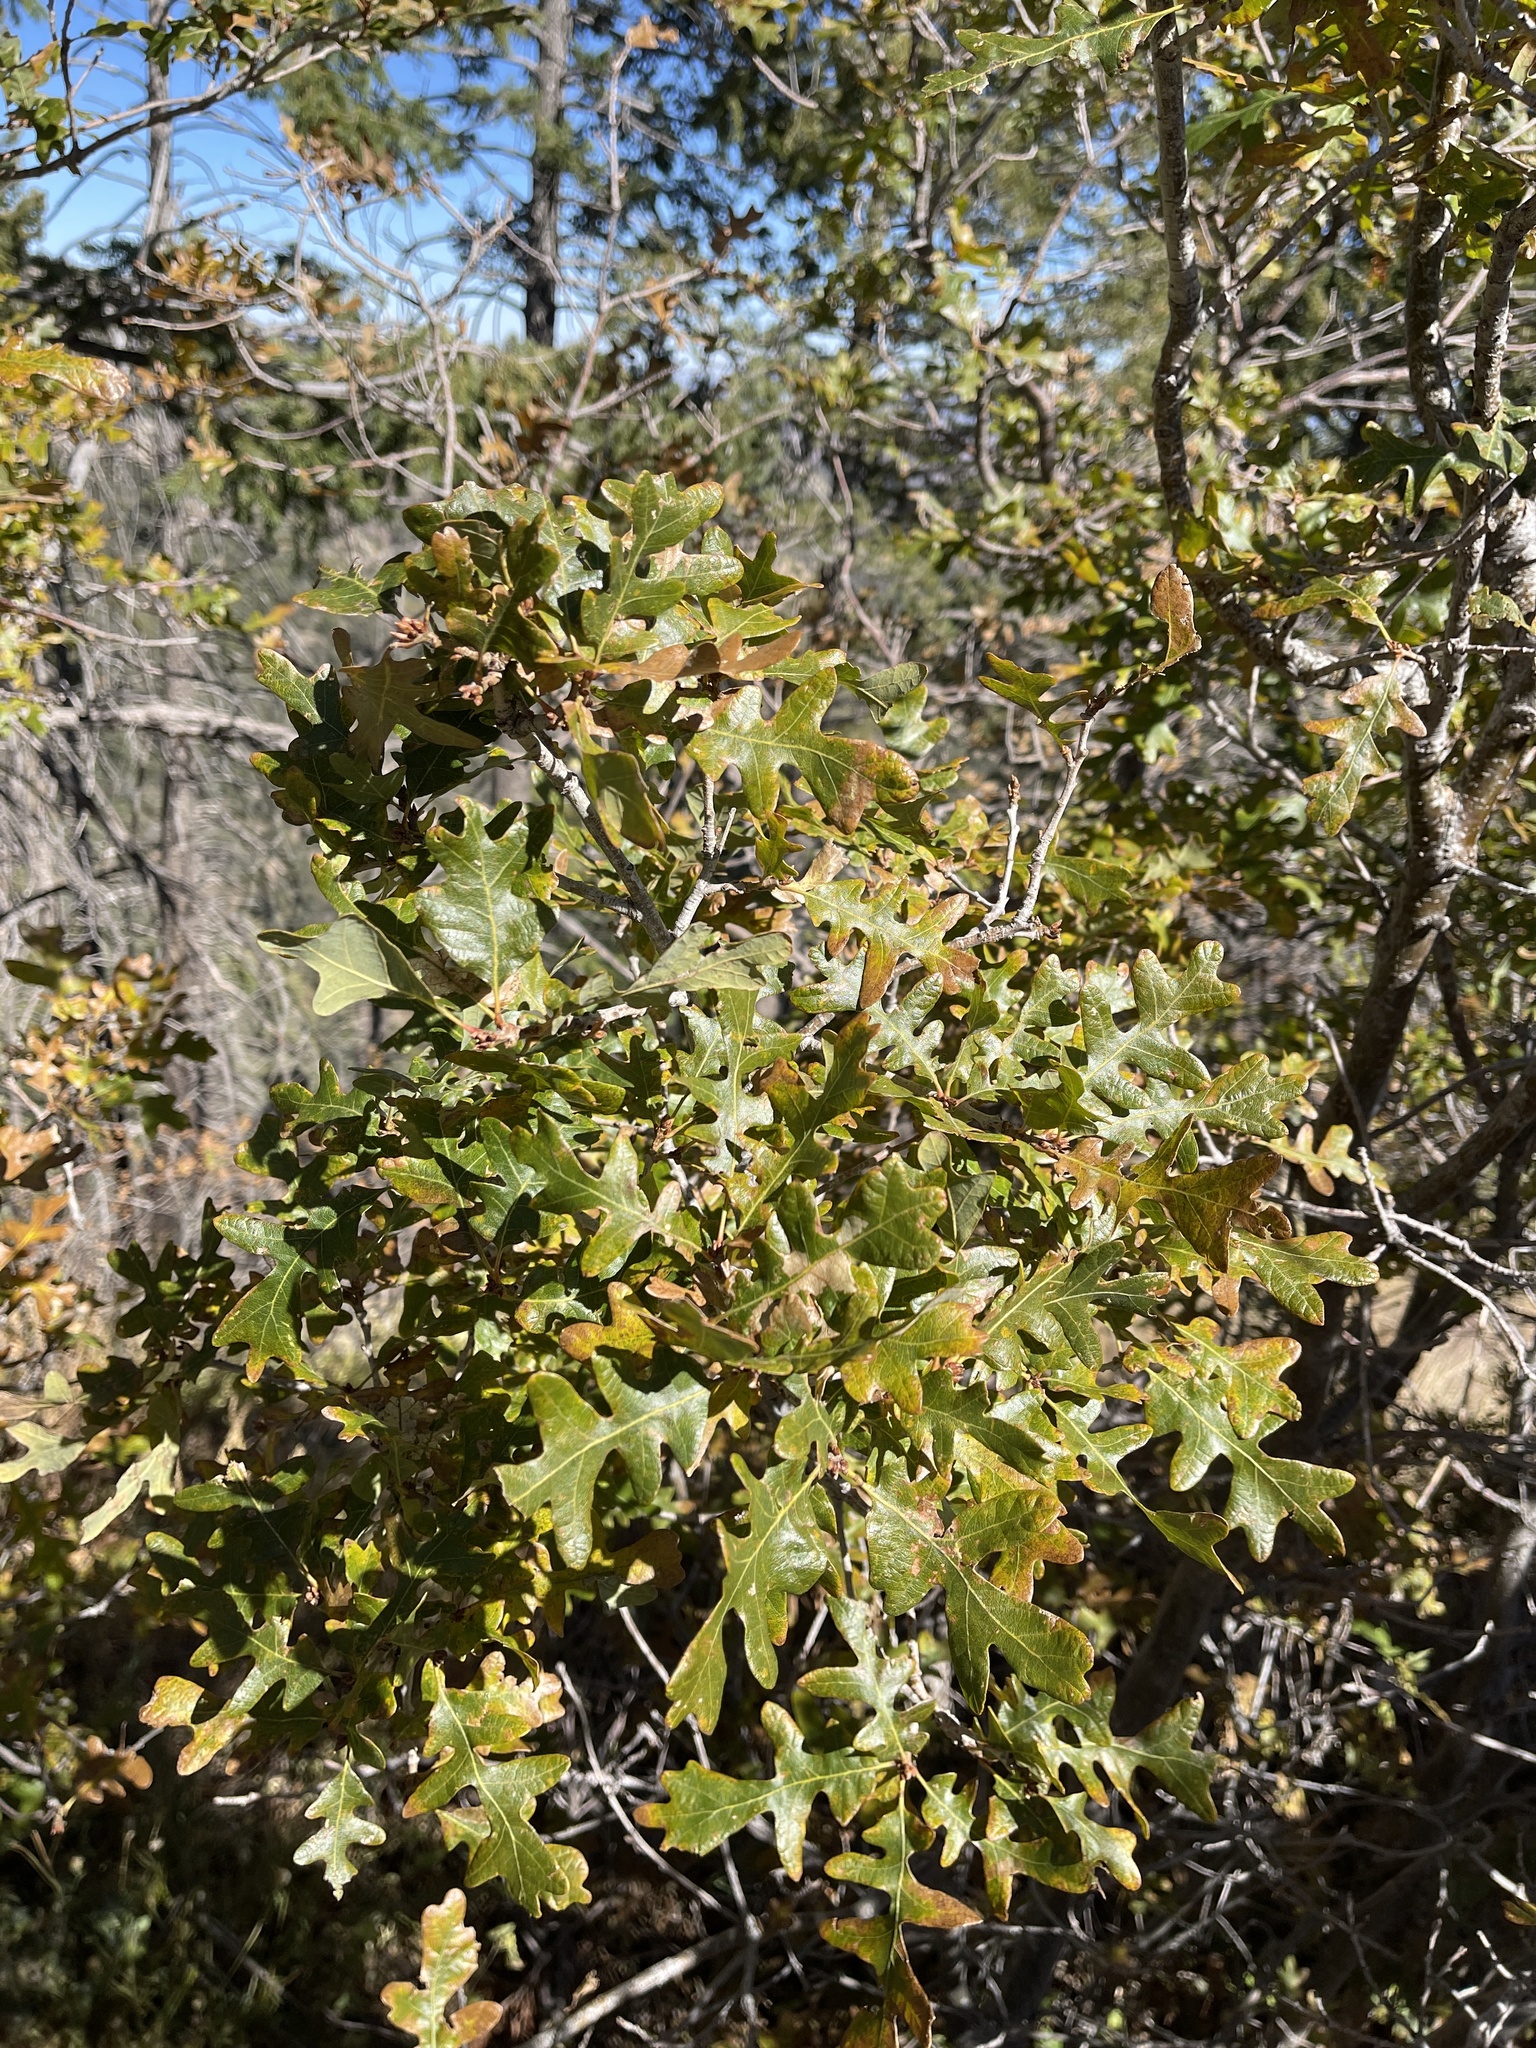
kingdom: Plantae
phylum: Tracheophyta
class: Magnoliopsida
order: Fagales
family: Fagaceae
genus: Quercus
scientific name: Quercus gambelii
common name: Gambel oak
